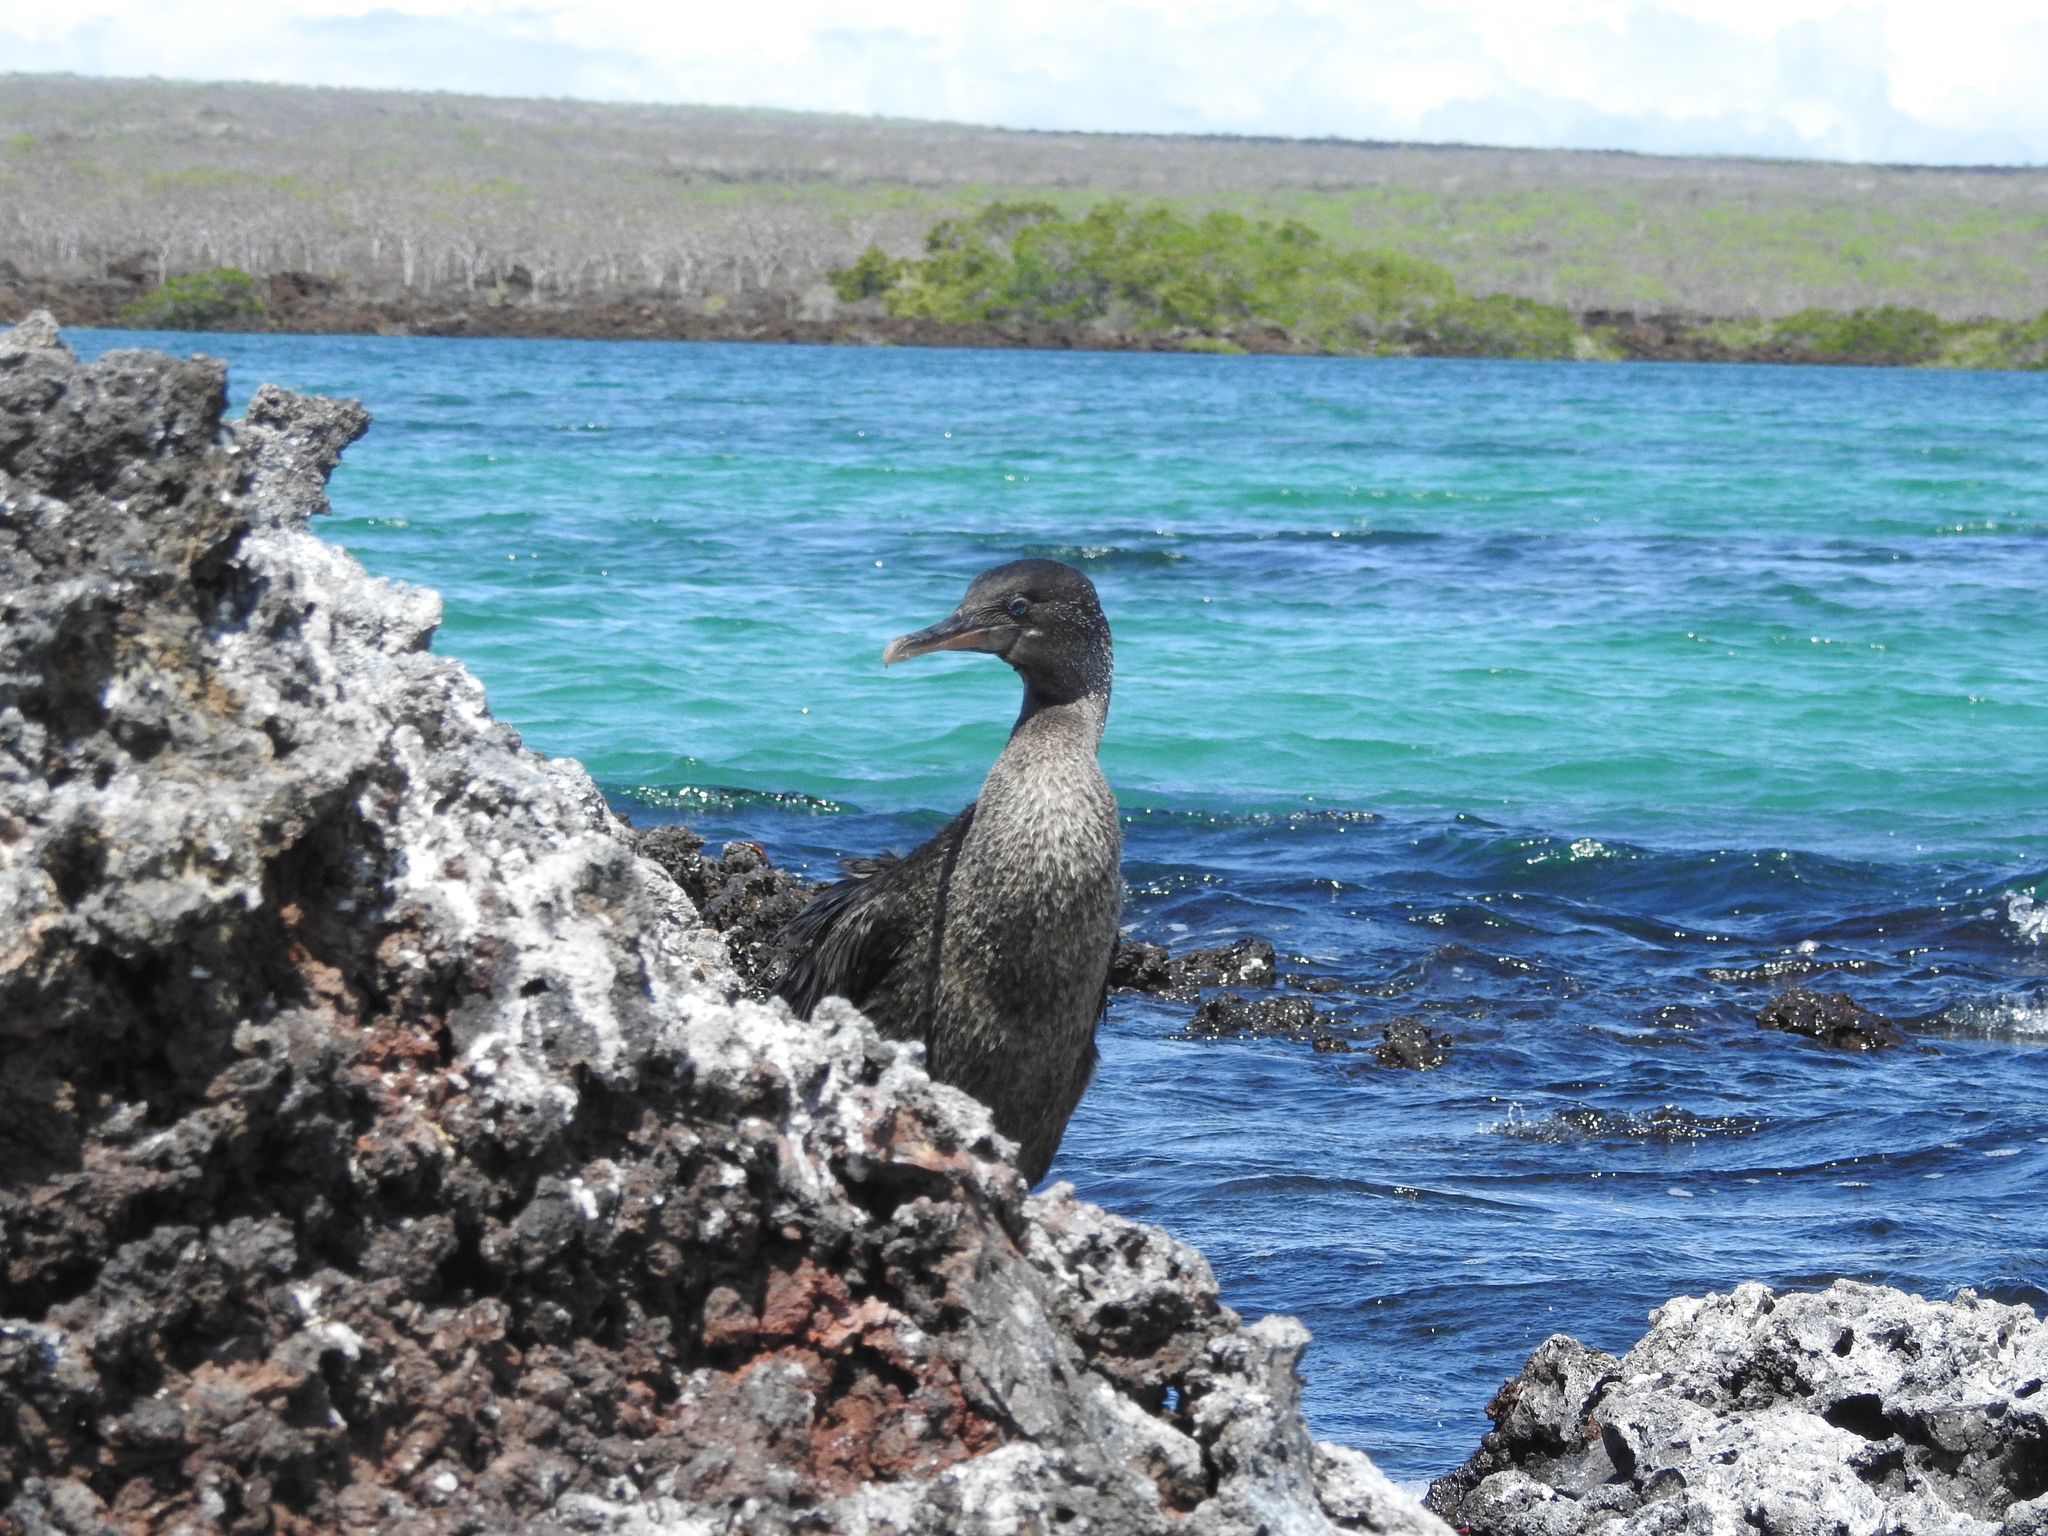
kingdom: Animalia
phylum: Chordata
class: Aves
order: Suliformes
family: Phalacrocoracidae
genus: Phalacrocorax
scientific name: Phalacrocorax harrisi
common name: Flightless cormorant
